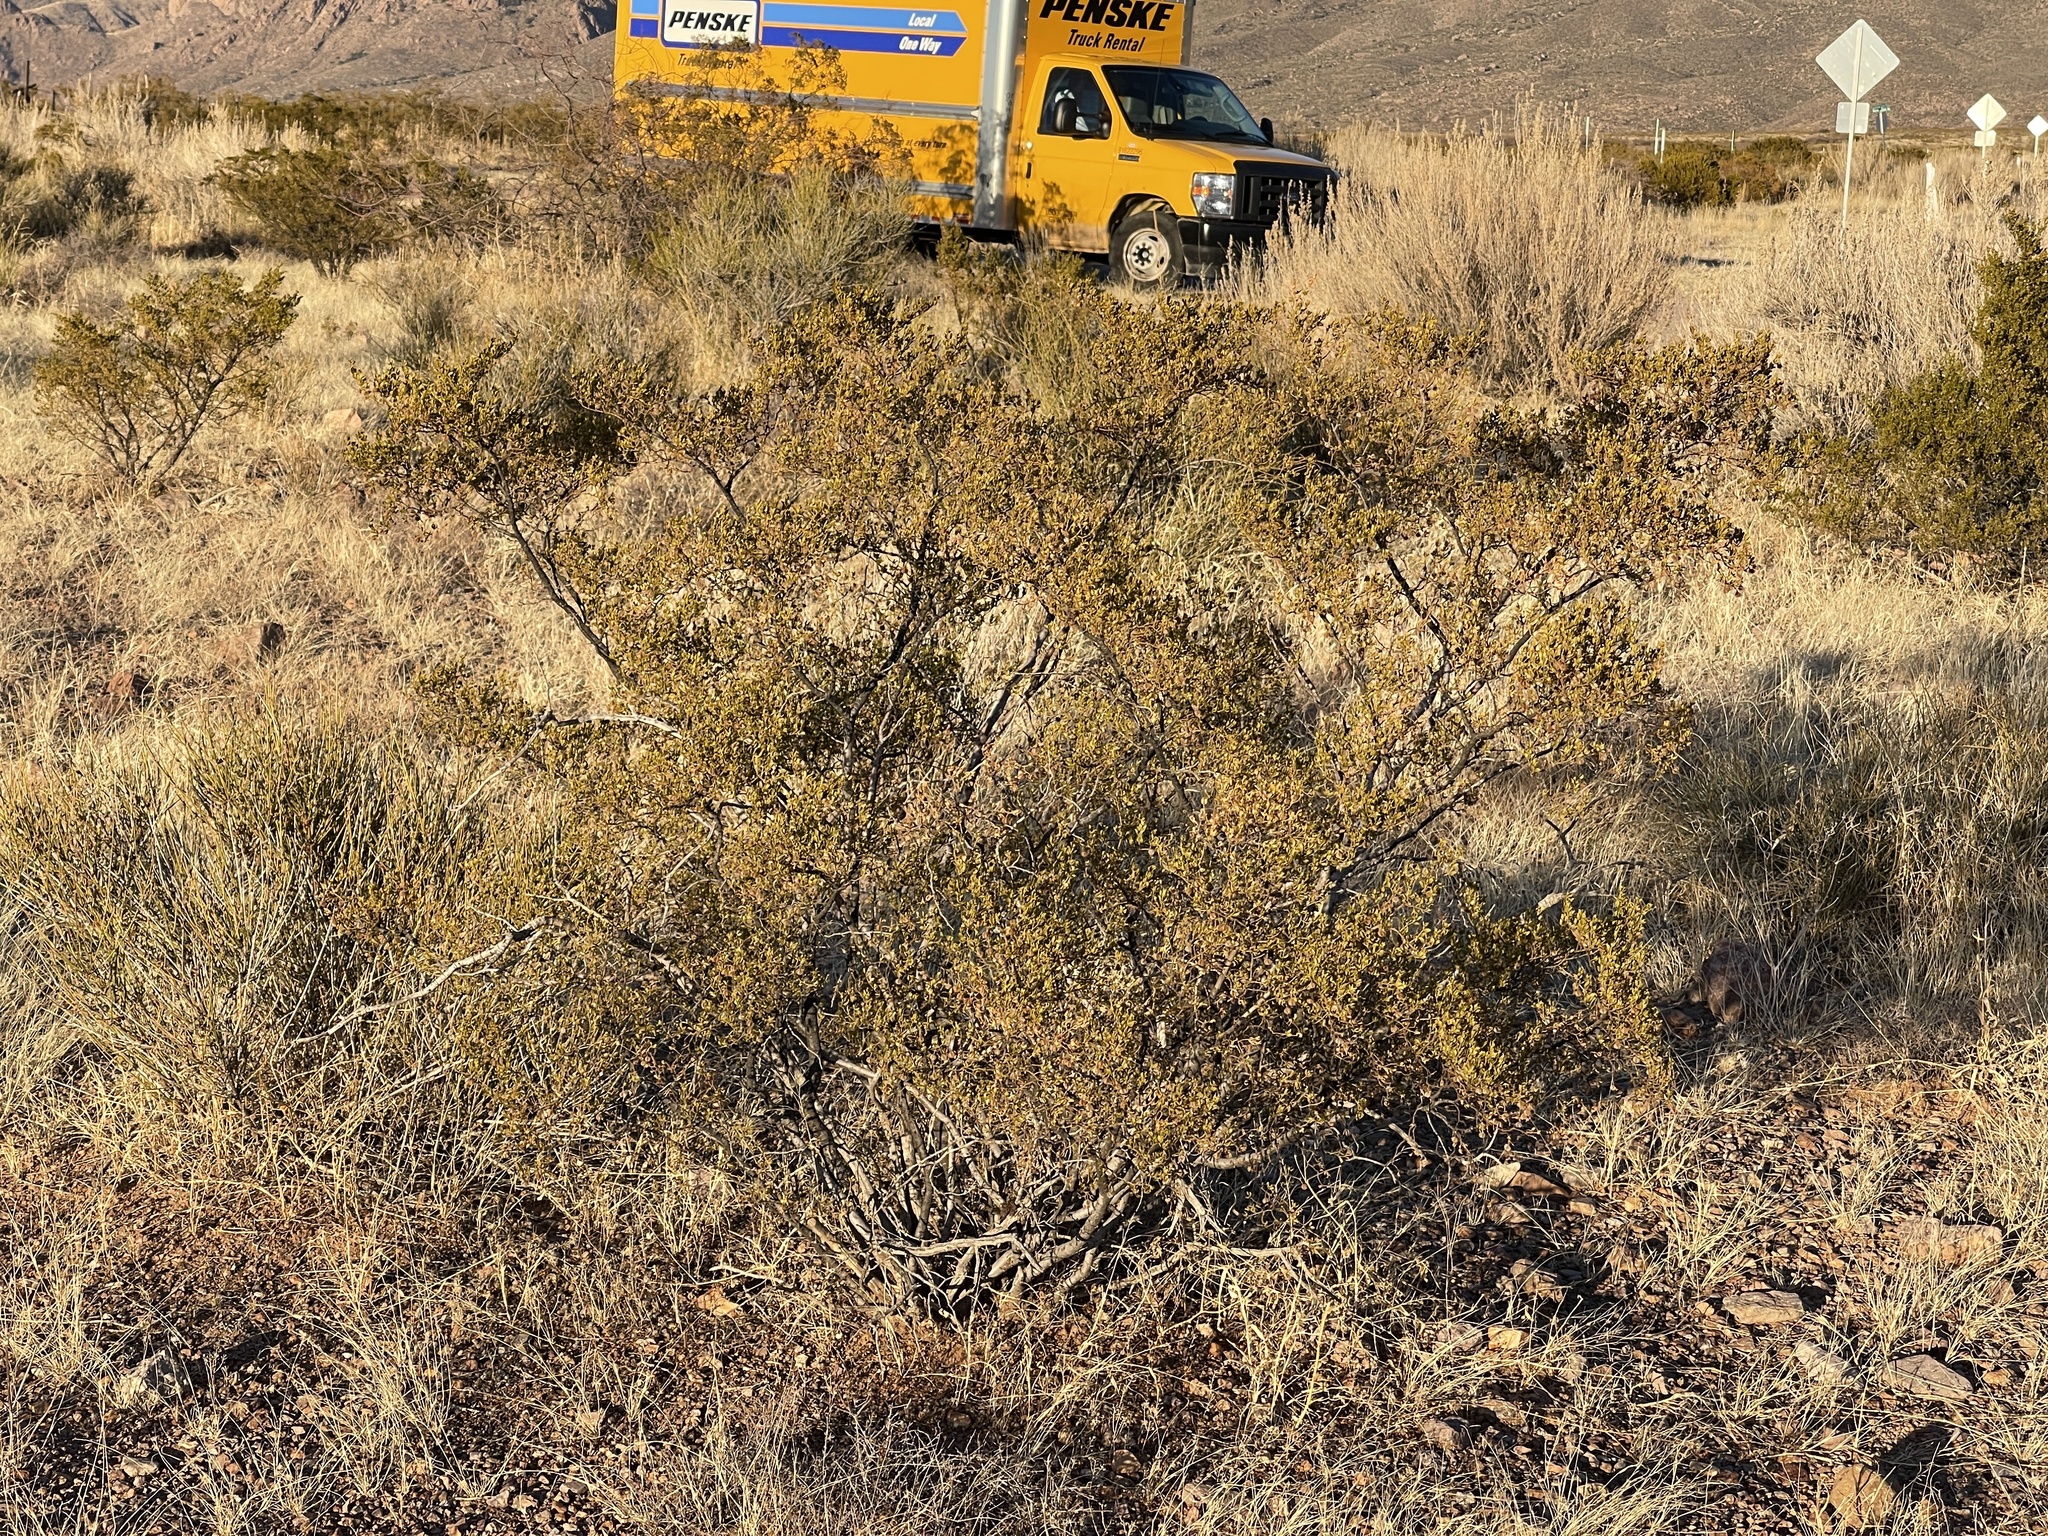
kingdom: Plantae
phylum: Tracheophyta
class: Magnoliopsida
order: Zygophyllales
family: Zygophyllaceae
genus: Larrea
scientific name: Larrea tridentata
